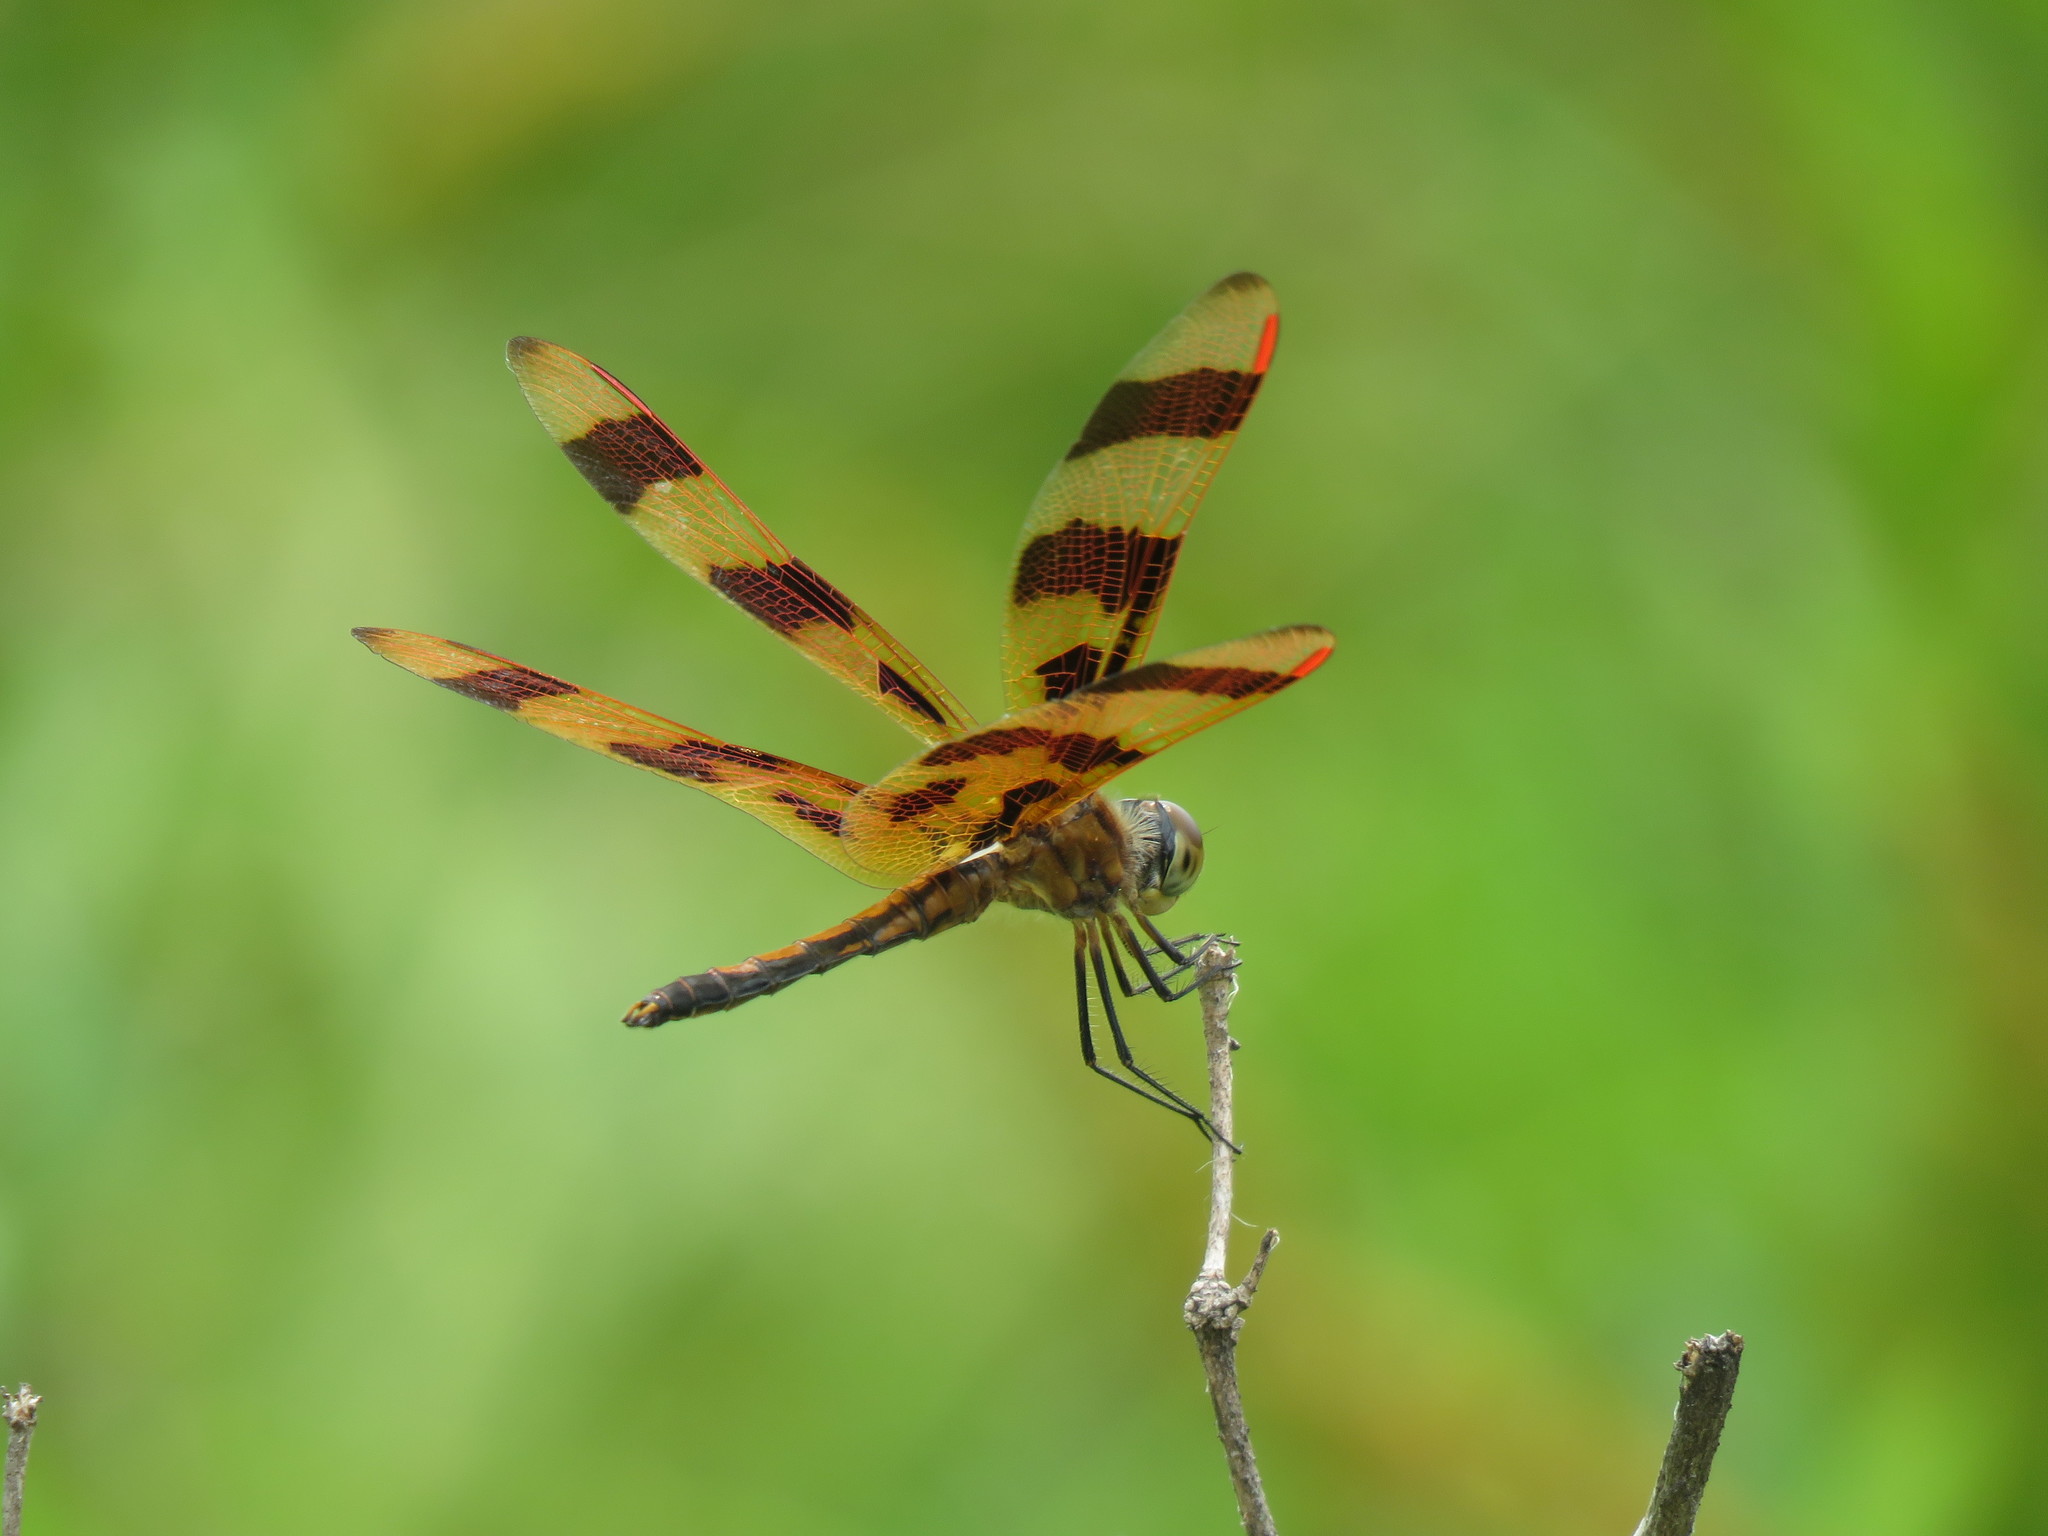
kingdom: Animalia
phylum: Arthropoda
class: Insecta
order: Odonata
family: Libellulidae
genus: Celithemis
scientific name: Celithemis eponina
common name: Halloween pennant
